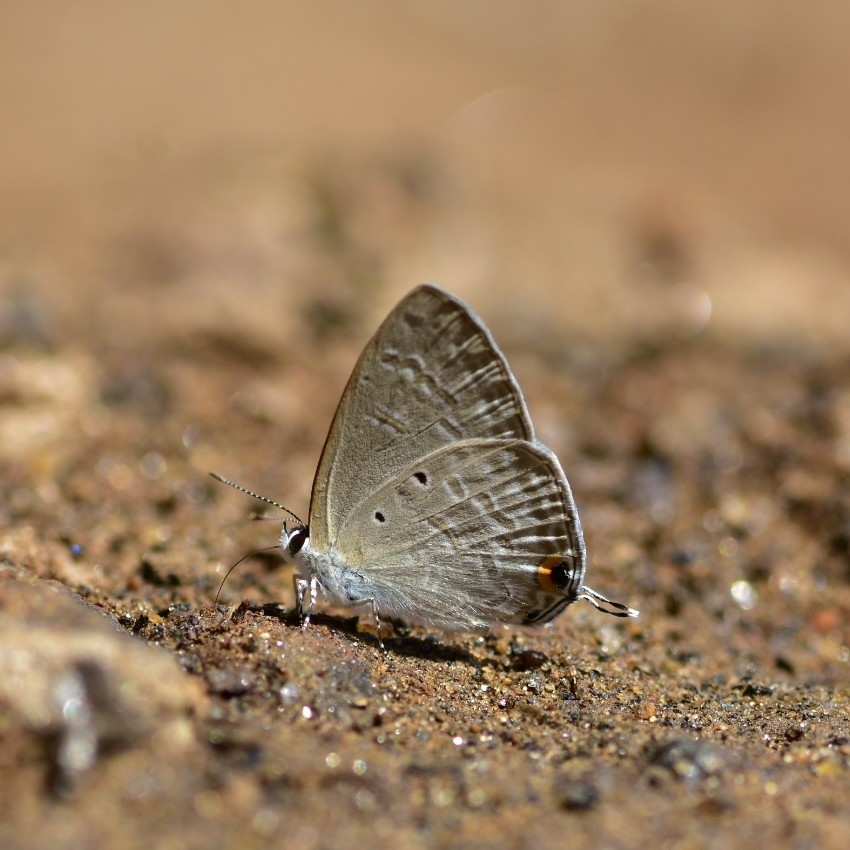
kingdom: Animalia
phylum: Arthropoda
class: Insecta
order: Lepidoptera
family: Lycaenidae
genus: Catochrysops
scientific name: Catochrysops strabo
